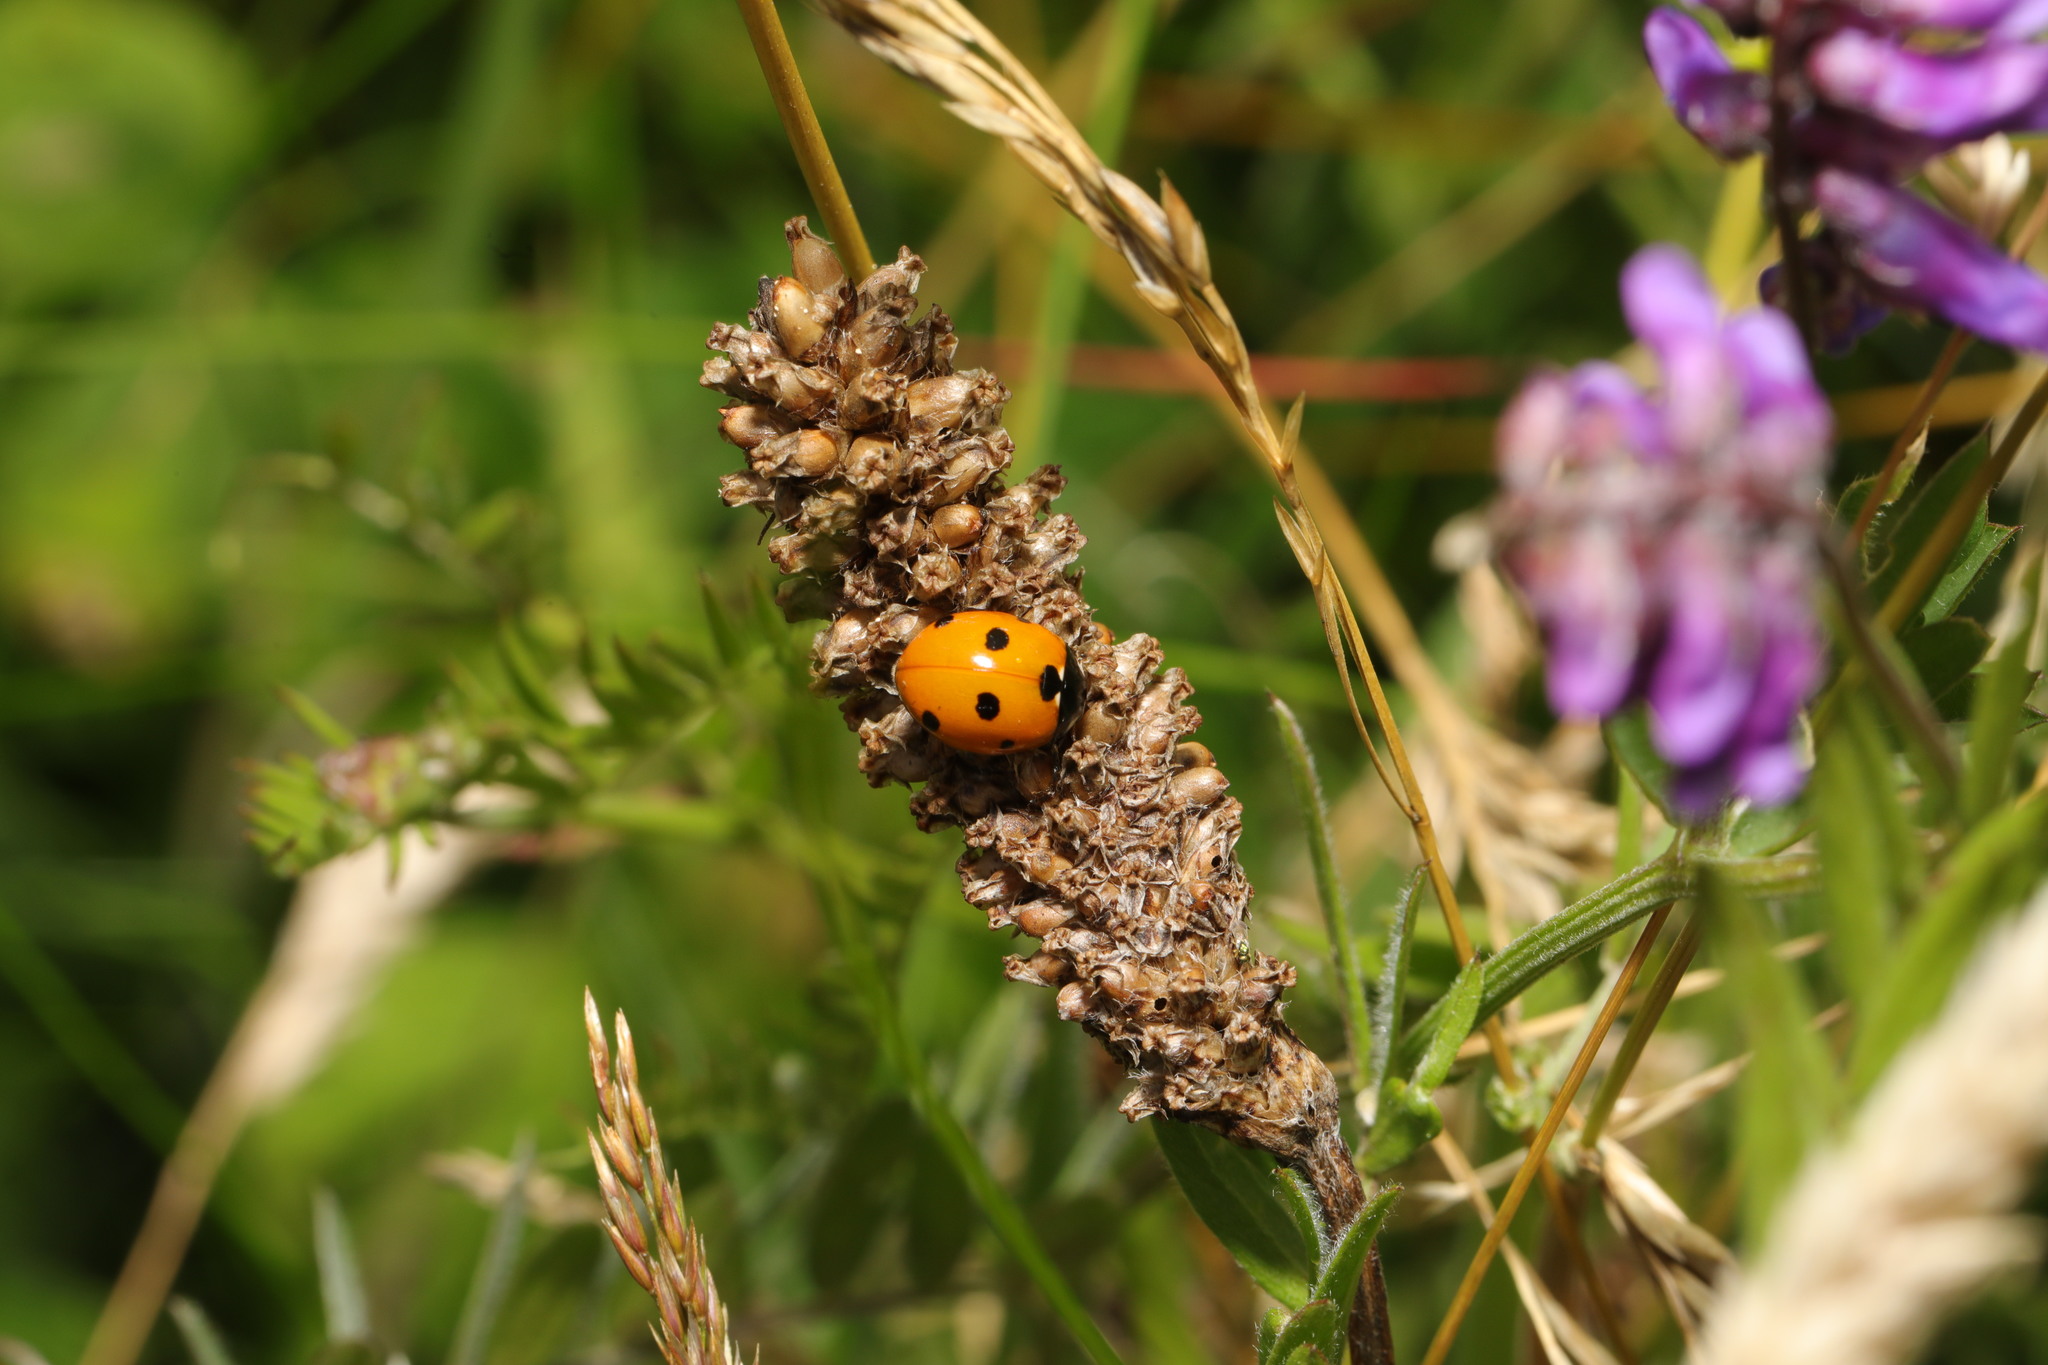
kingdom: Animalia
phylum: Arthropoda
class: Insecta
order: Coleoptera
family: Coccinellidae
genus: Coccinella
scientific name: Coccinella septempunctata
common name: Sevenspotted lady beetle
